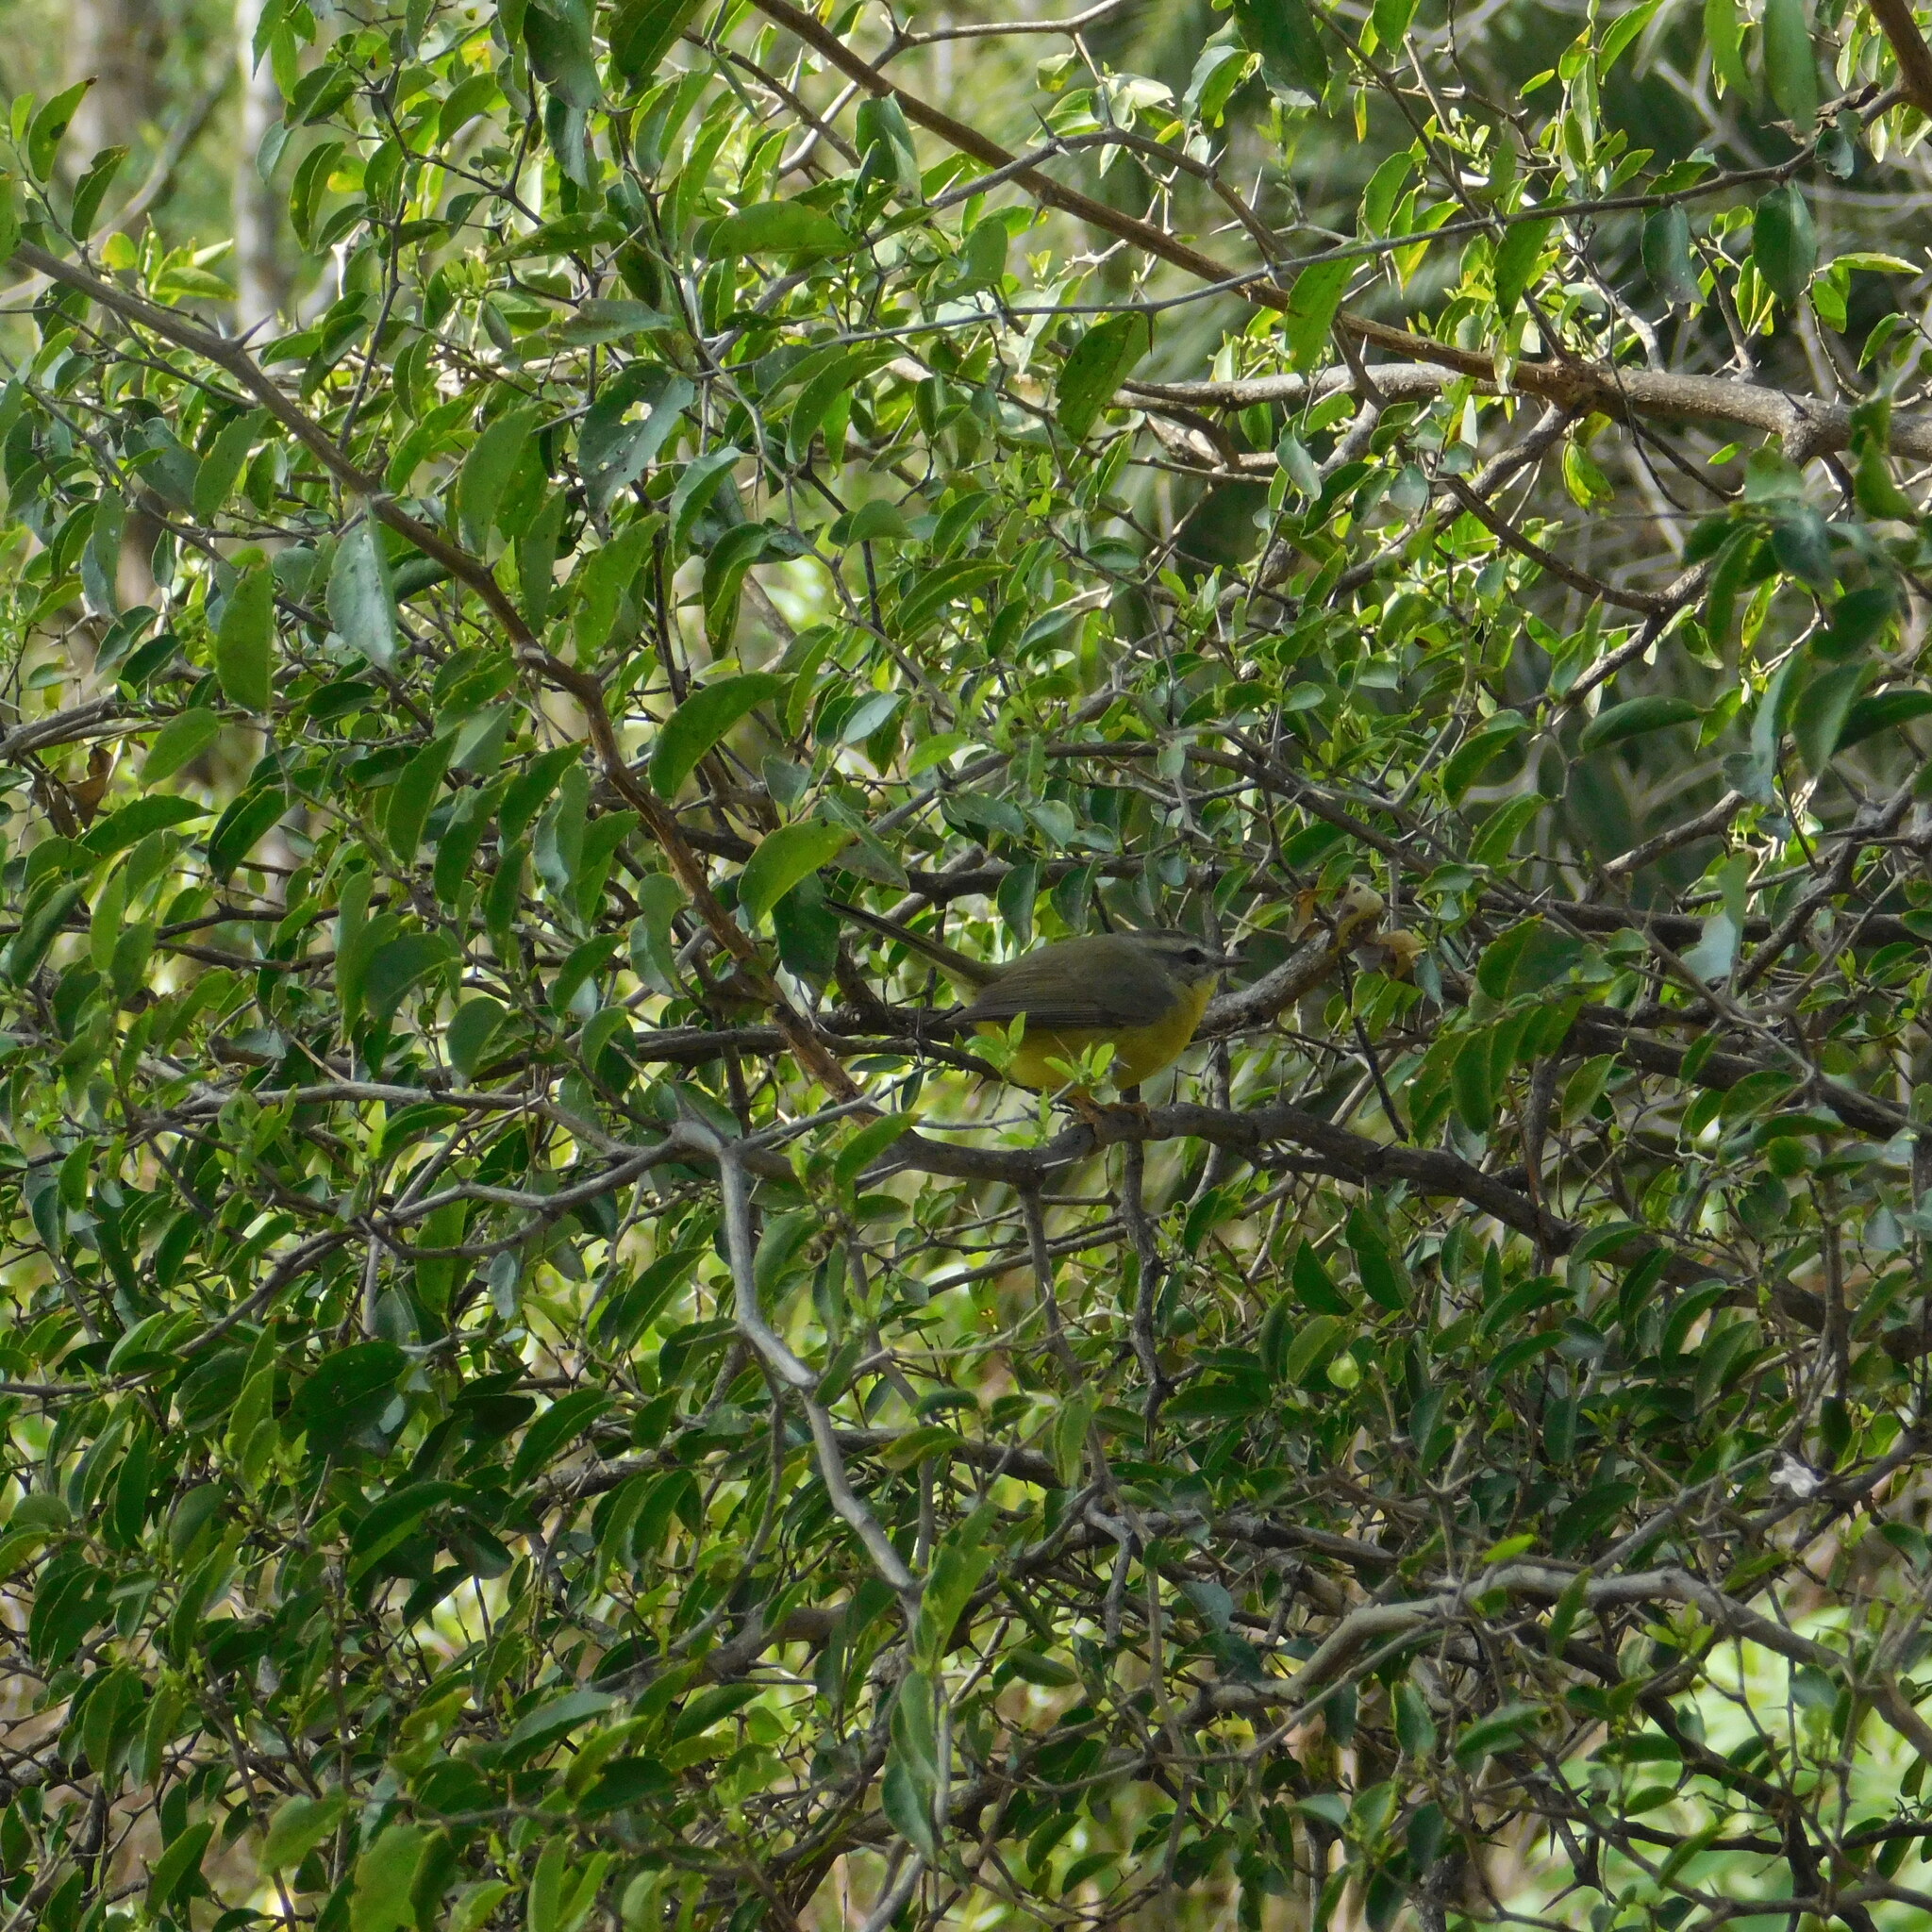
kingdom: Animalia
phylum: Chordata
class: Aves
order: Passeriformes
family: Parulidae
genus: Basileuterus
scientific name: Basileuterus culicivorus
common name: Golden-crowned warbler
